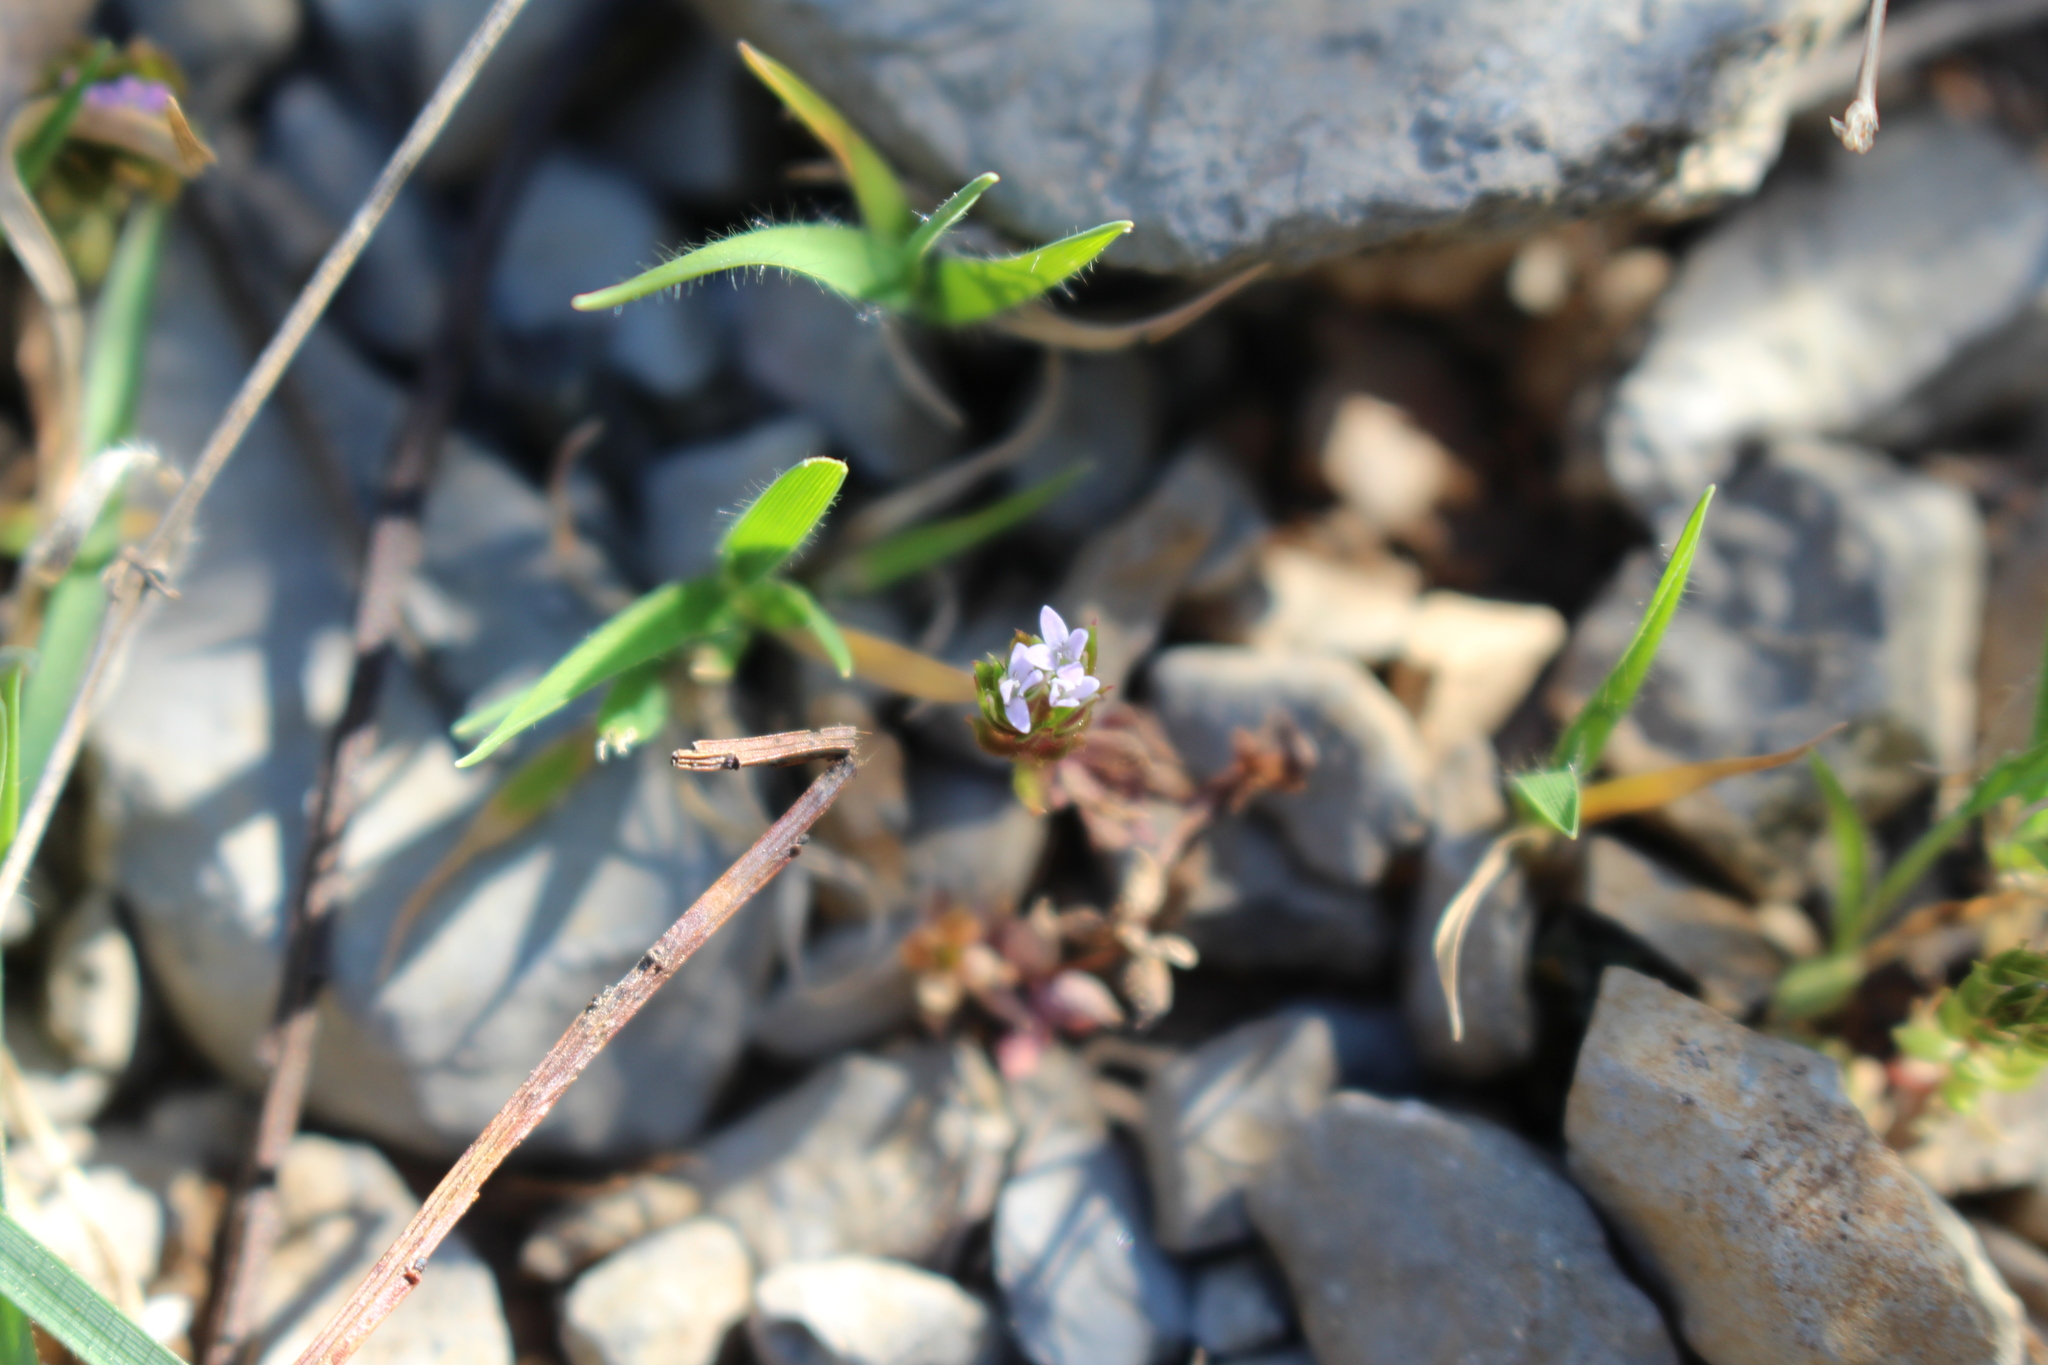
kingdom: Plantae
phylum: Tracheophyta
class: Magnoliopsida
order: Gentianales
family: Rubiaceae
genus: Sherardia
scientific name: Sherardia arvensis
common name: Field madder
